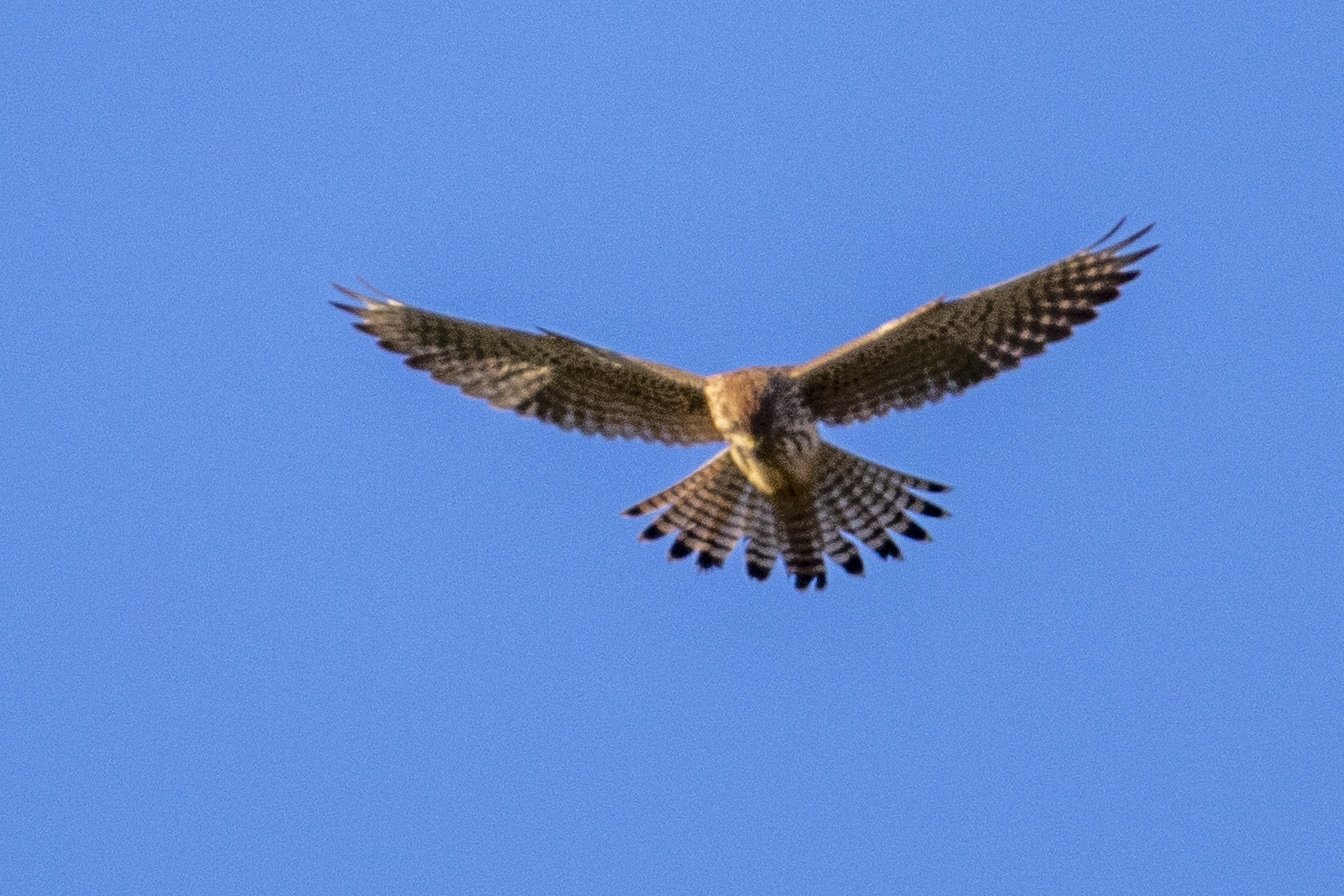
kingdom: Animalia
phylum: Chordata
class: Aves
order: Falconiformes
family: Falconidae
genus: Falco
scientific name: Falco tinnunculus
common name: Common kestrel
